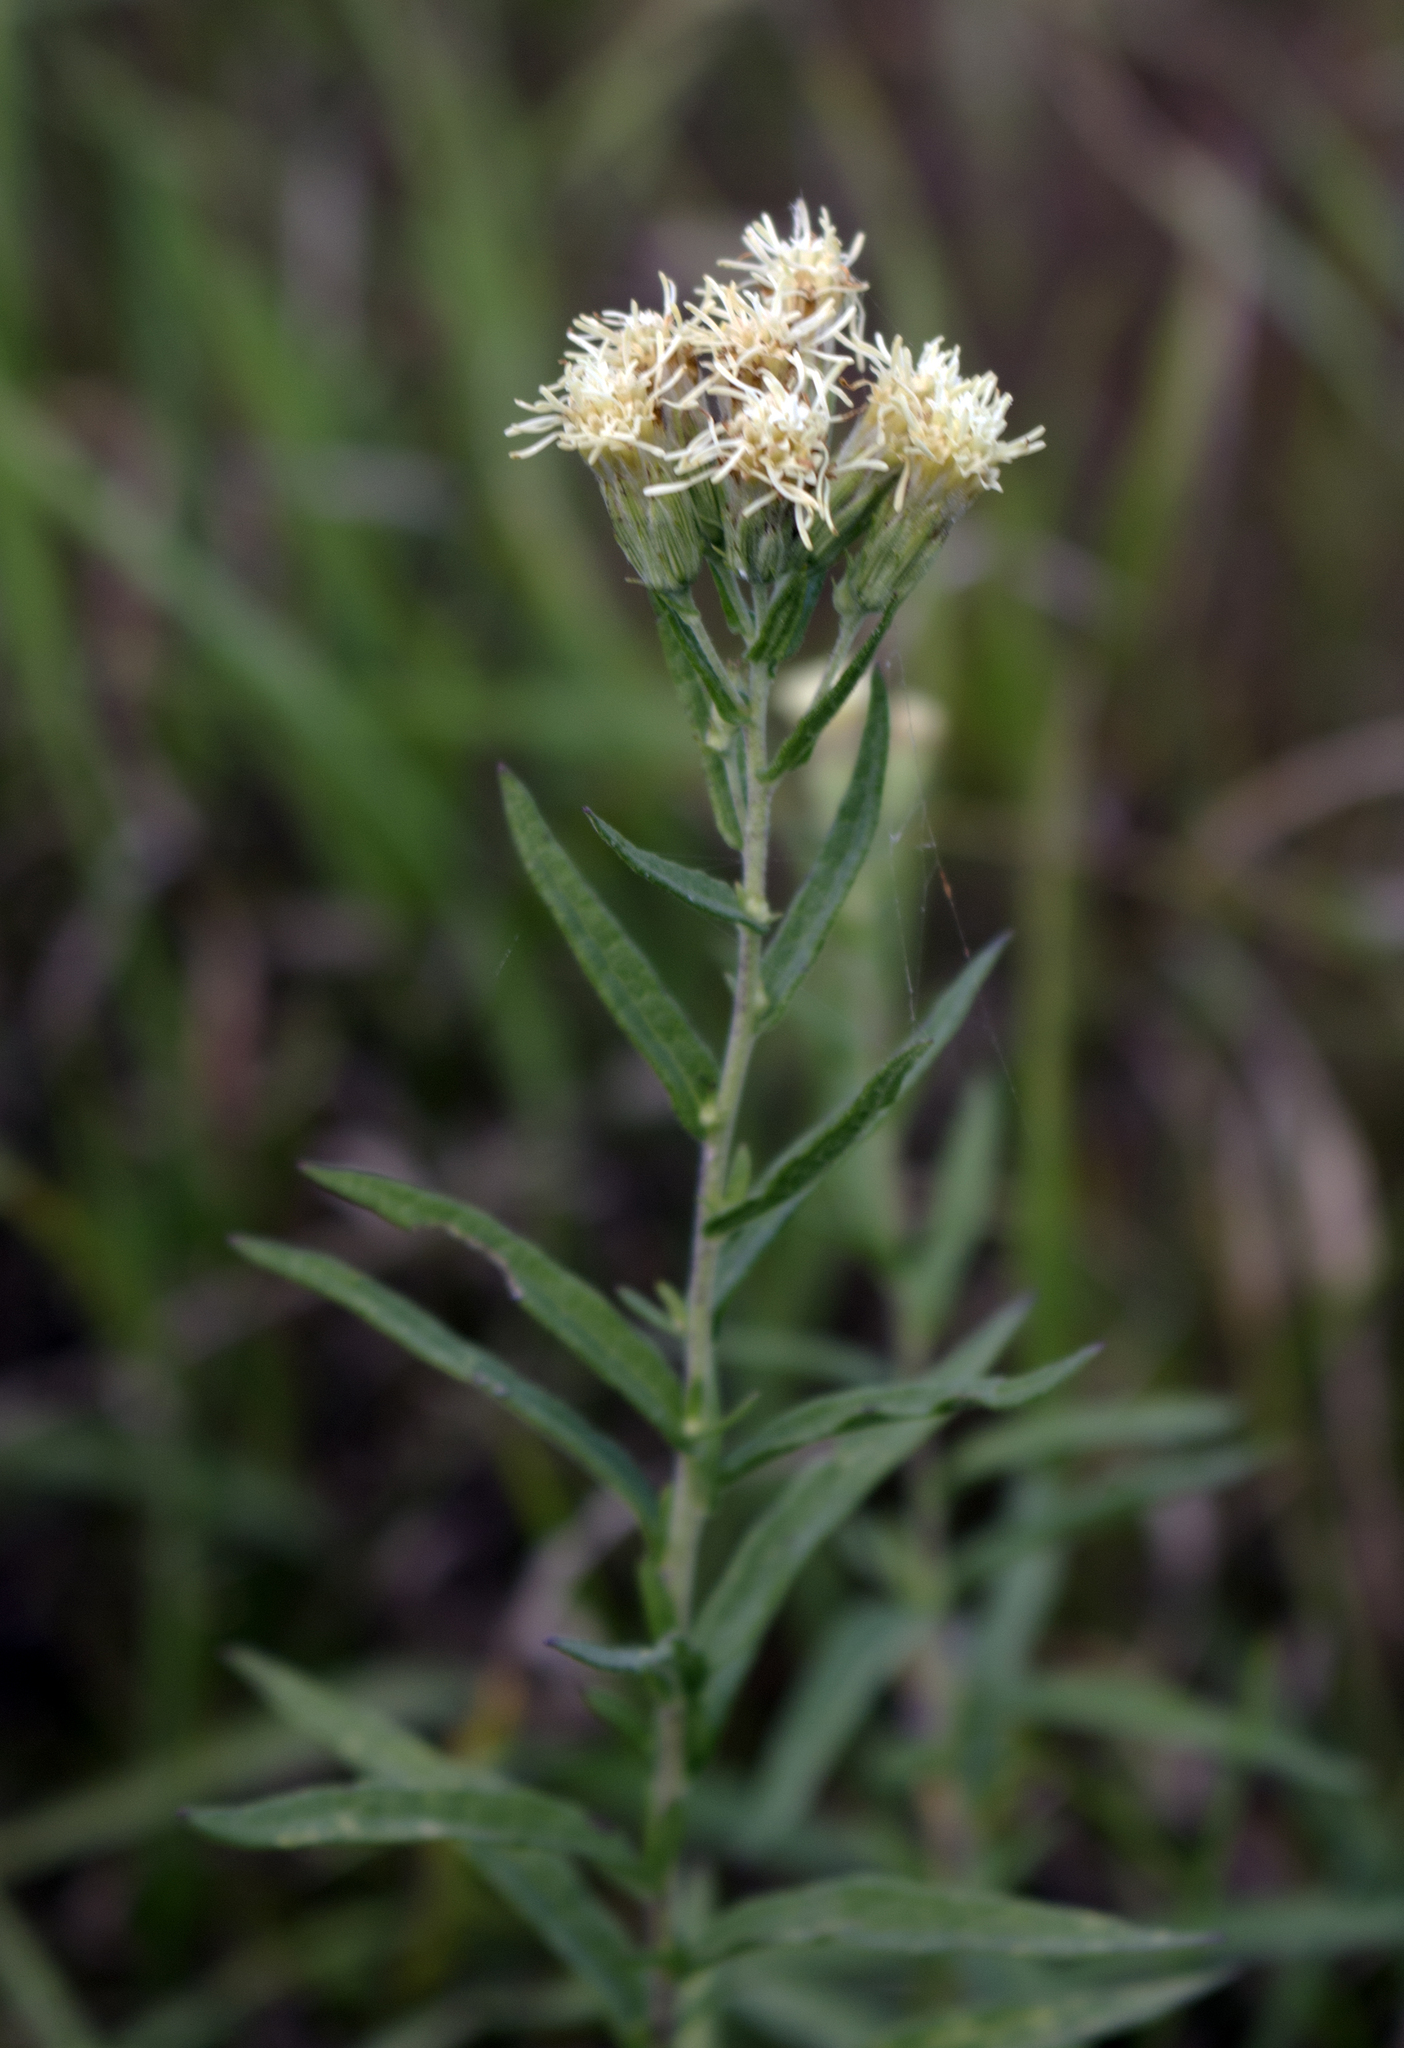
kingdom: Plantae
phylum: Tracheophyta
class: Magnoliopsida
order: Asterales
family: Asteraceae
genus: Brickellia
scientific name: Brickellia eupatorioides
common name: False boneset
